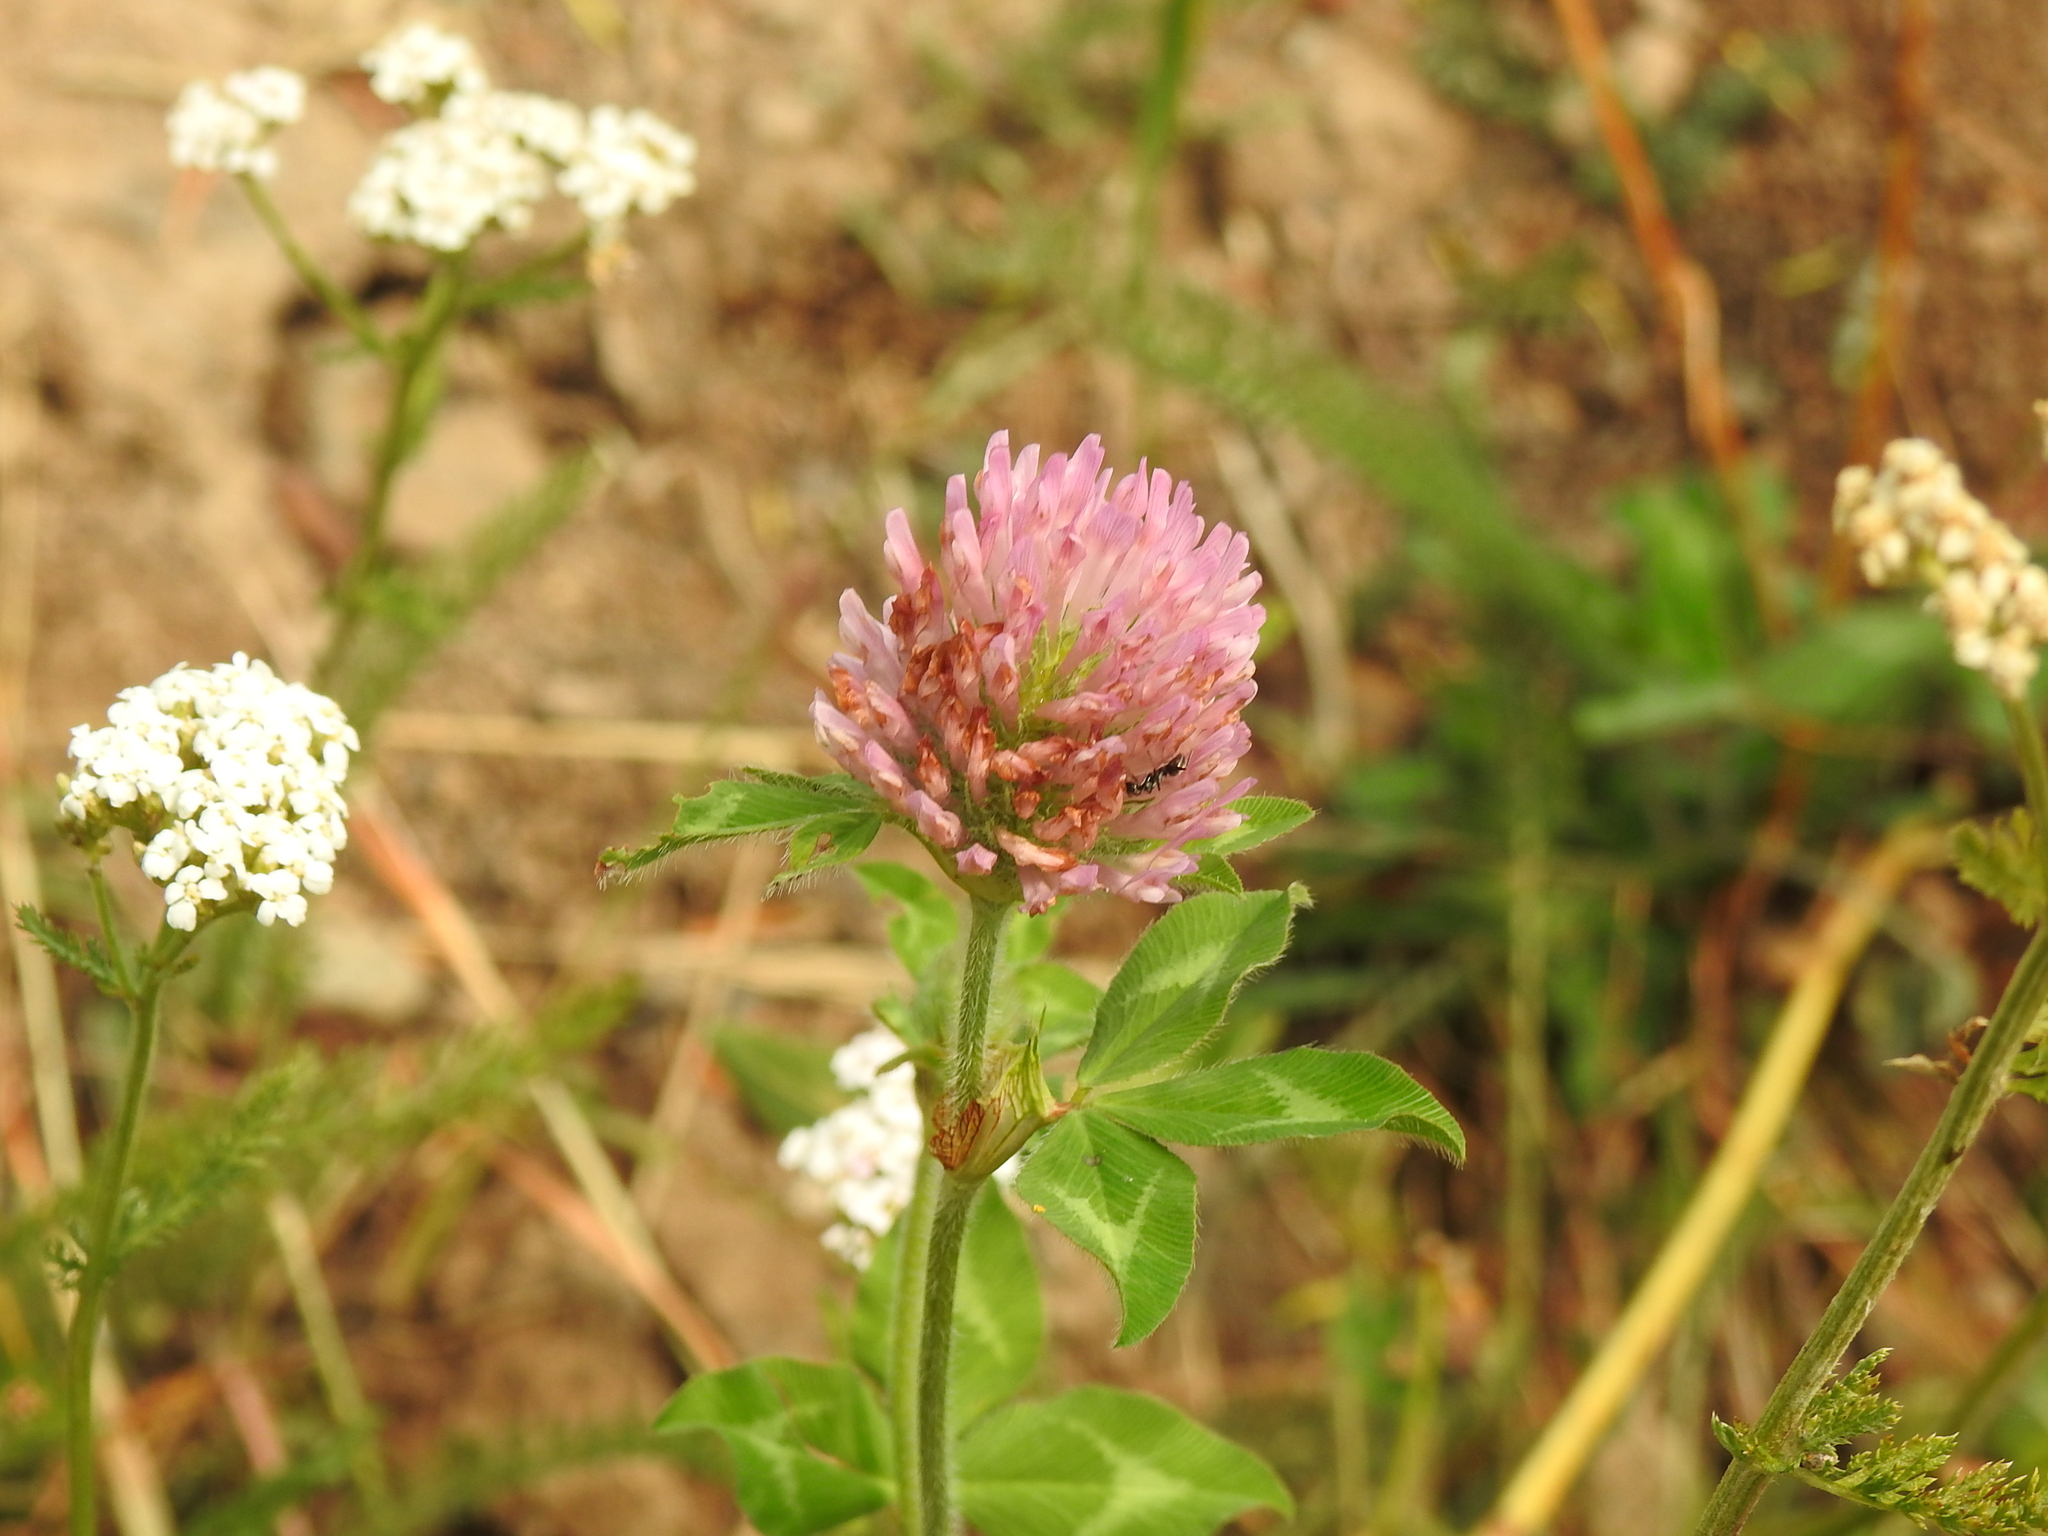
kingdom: Plantae
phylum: Tracheophyta
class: Magnoliopsida
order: Fabales
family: Fabaceae
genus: Trifolium
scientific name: Trifolium pratense
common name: Red clover
